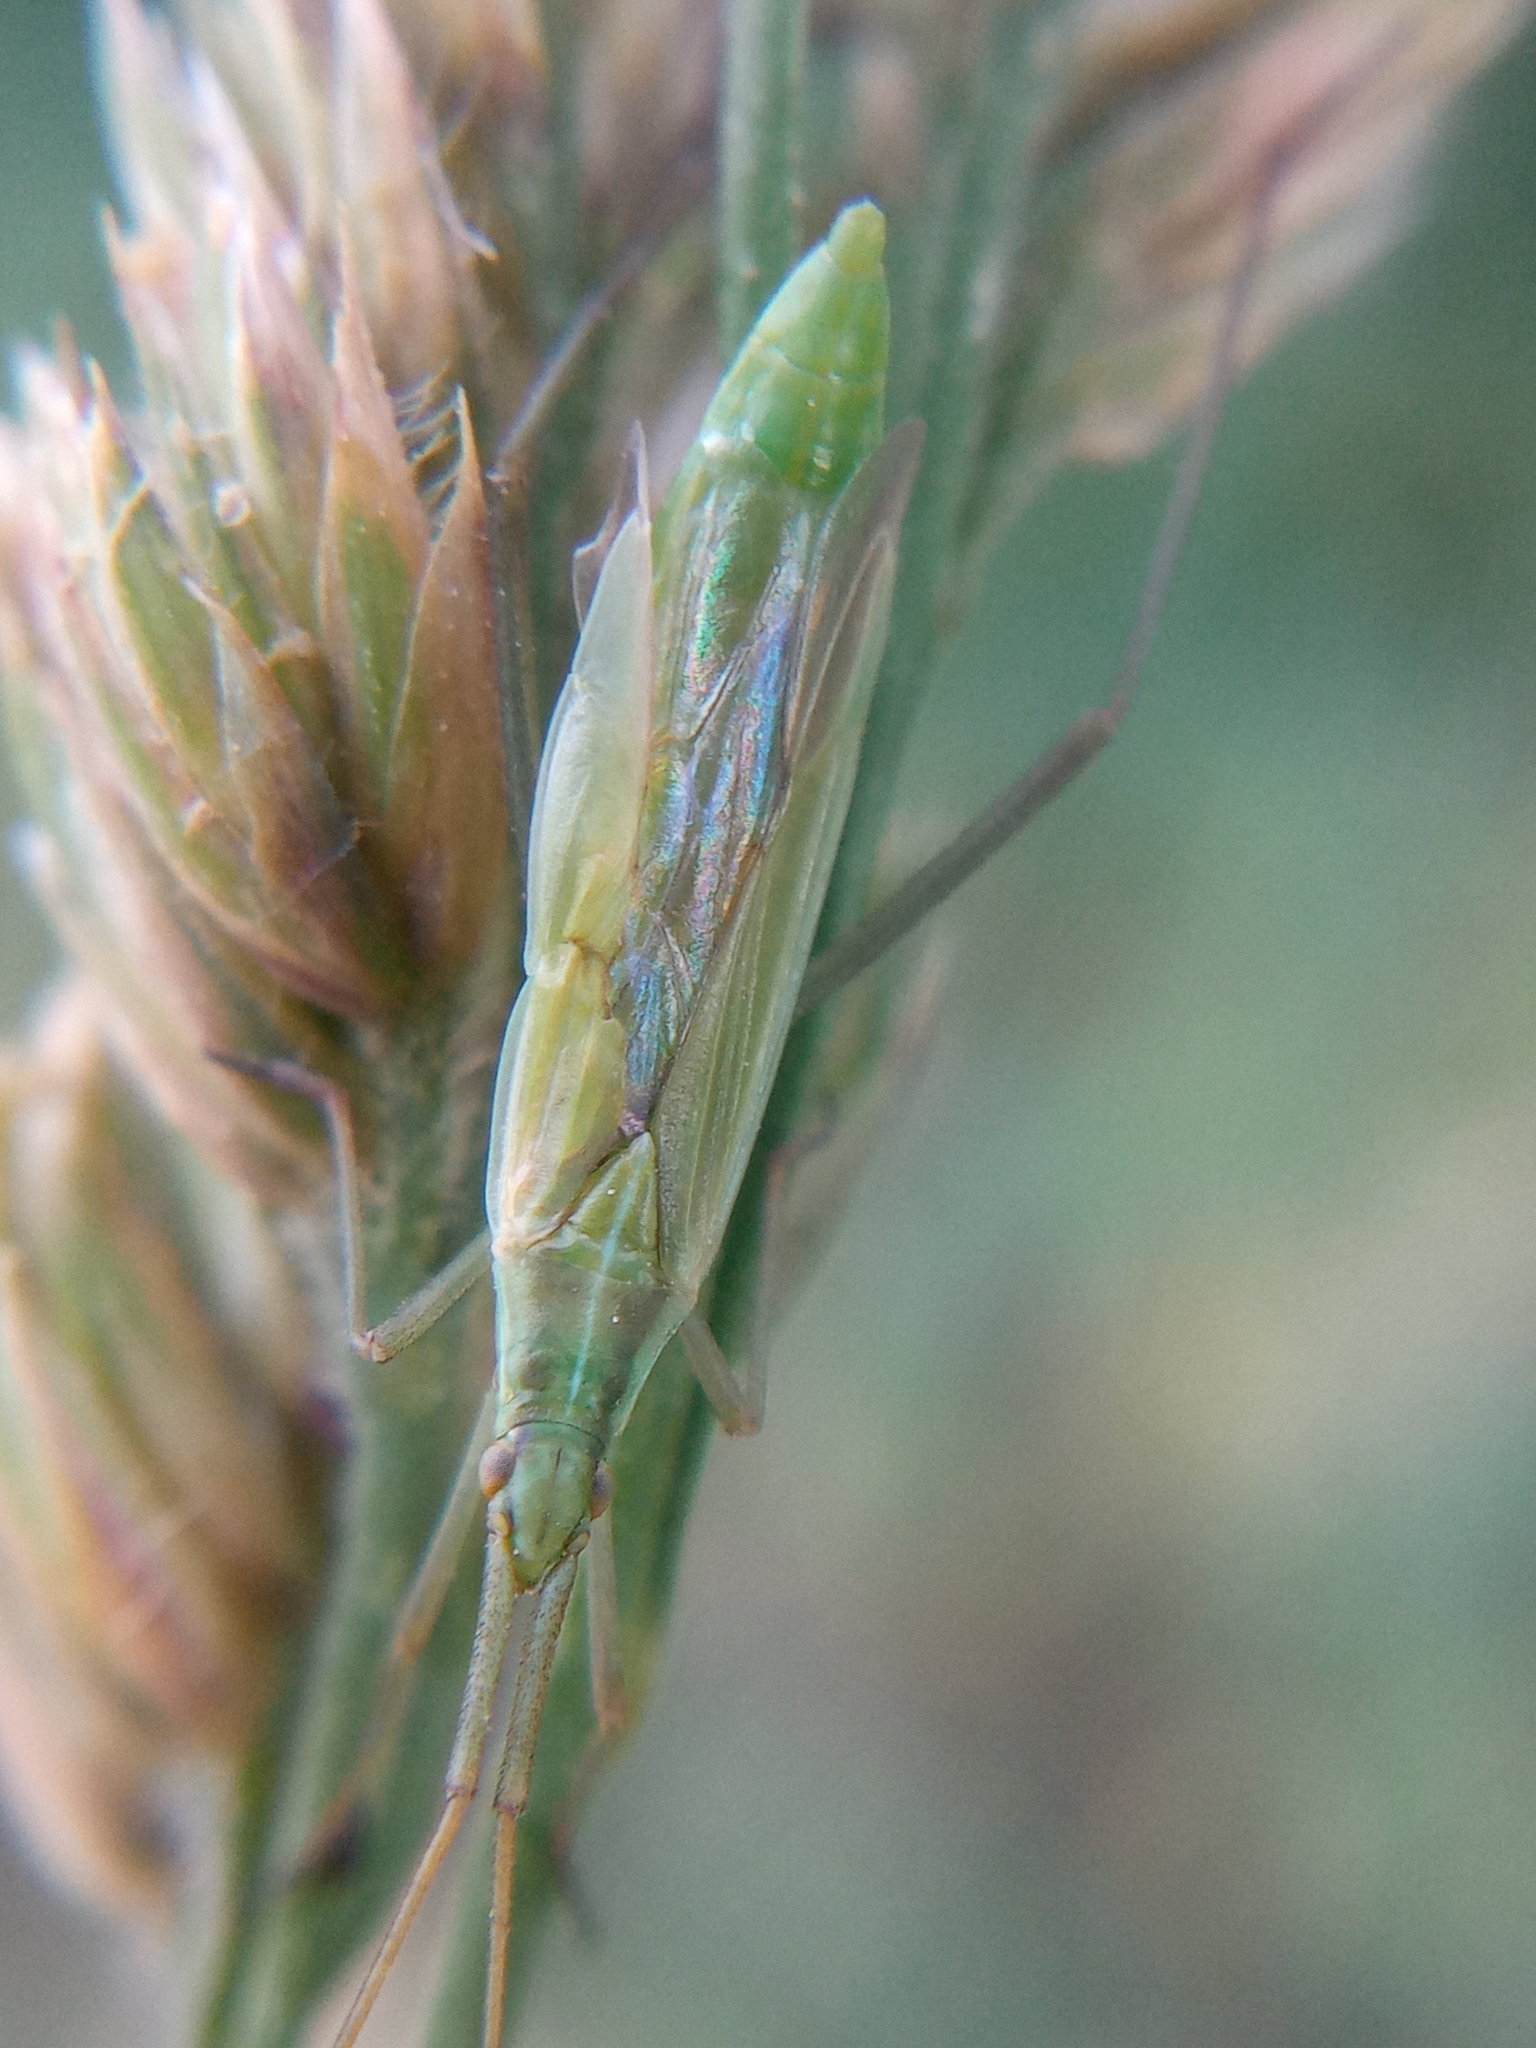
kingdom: Animalia
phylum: Arthropoda
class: Insecta
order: Hemiptera
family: Miridae
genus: Megaloceroea
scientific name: Megaloceroea recticornis
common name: Plant bug
